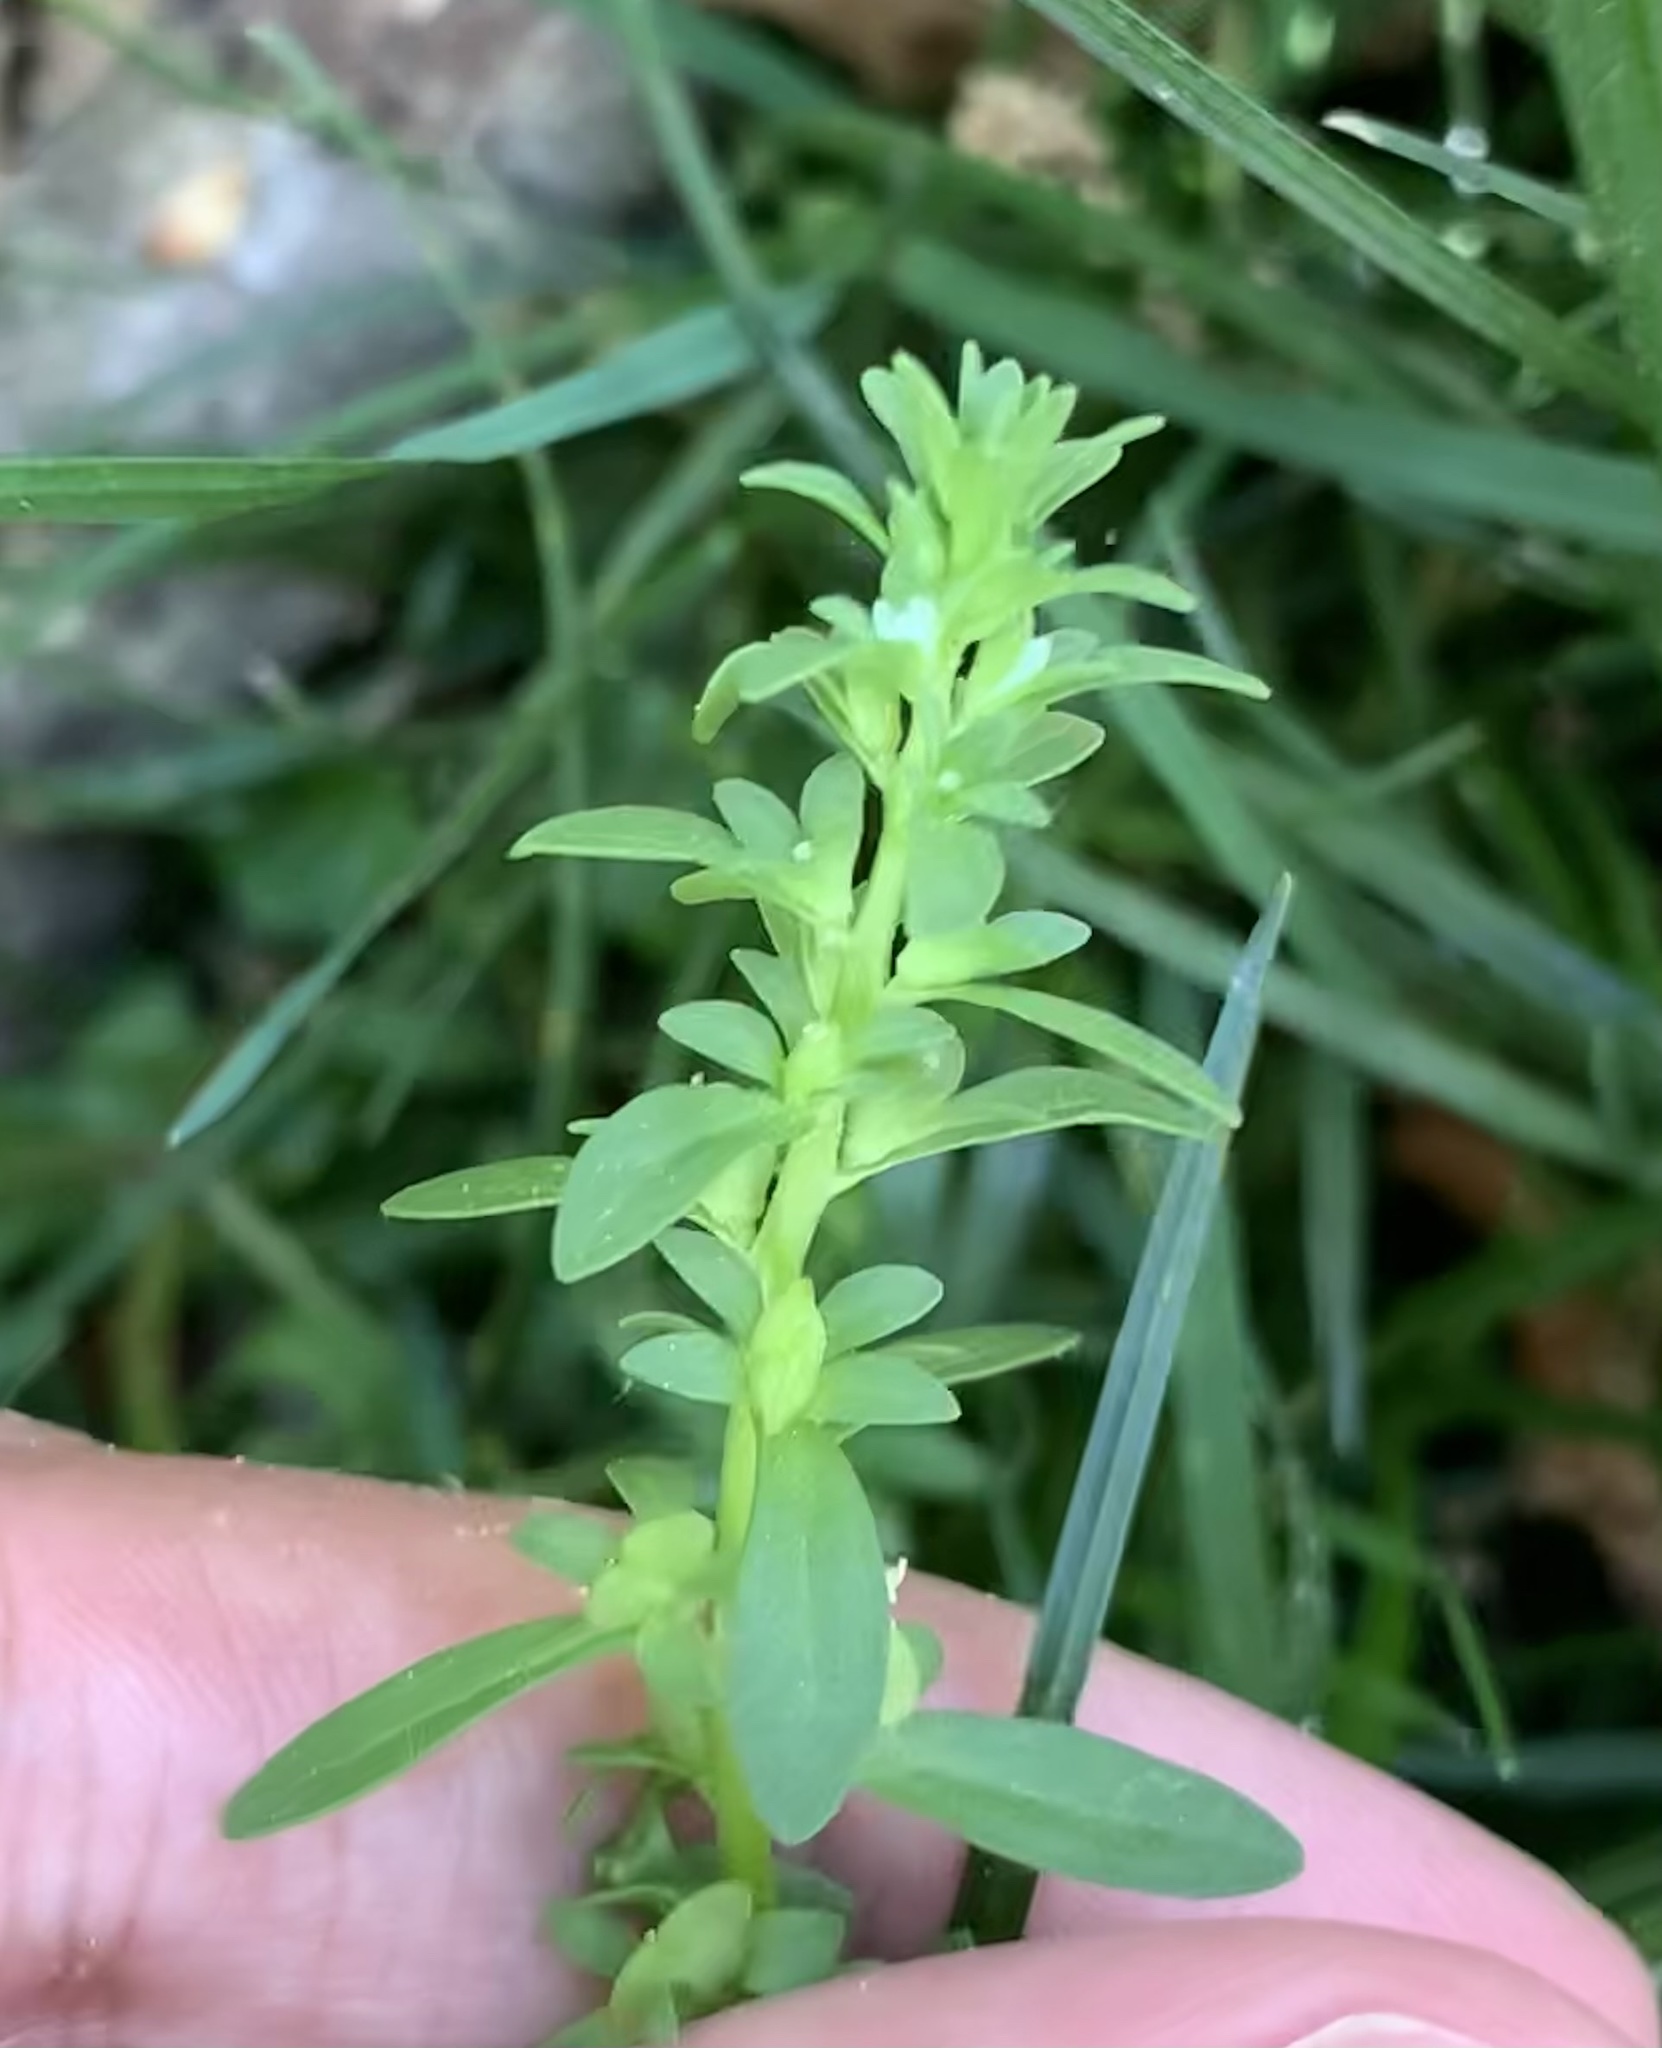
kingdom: Plantae
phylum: Tracheophyta
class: Magnoliopsida
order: Lamiales
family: Plantaginaceae
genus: Veronica
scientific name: Veronica peregrina
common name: Neckweed
